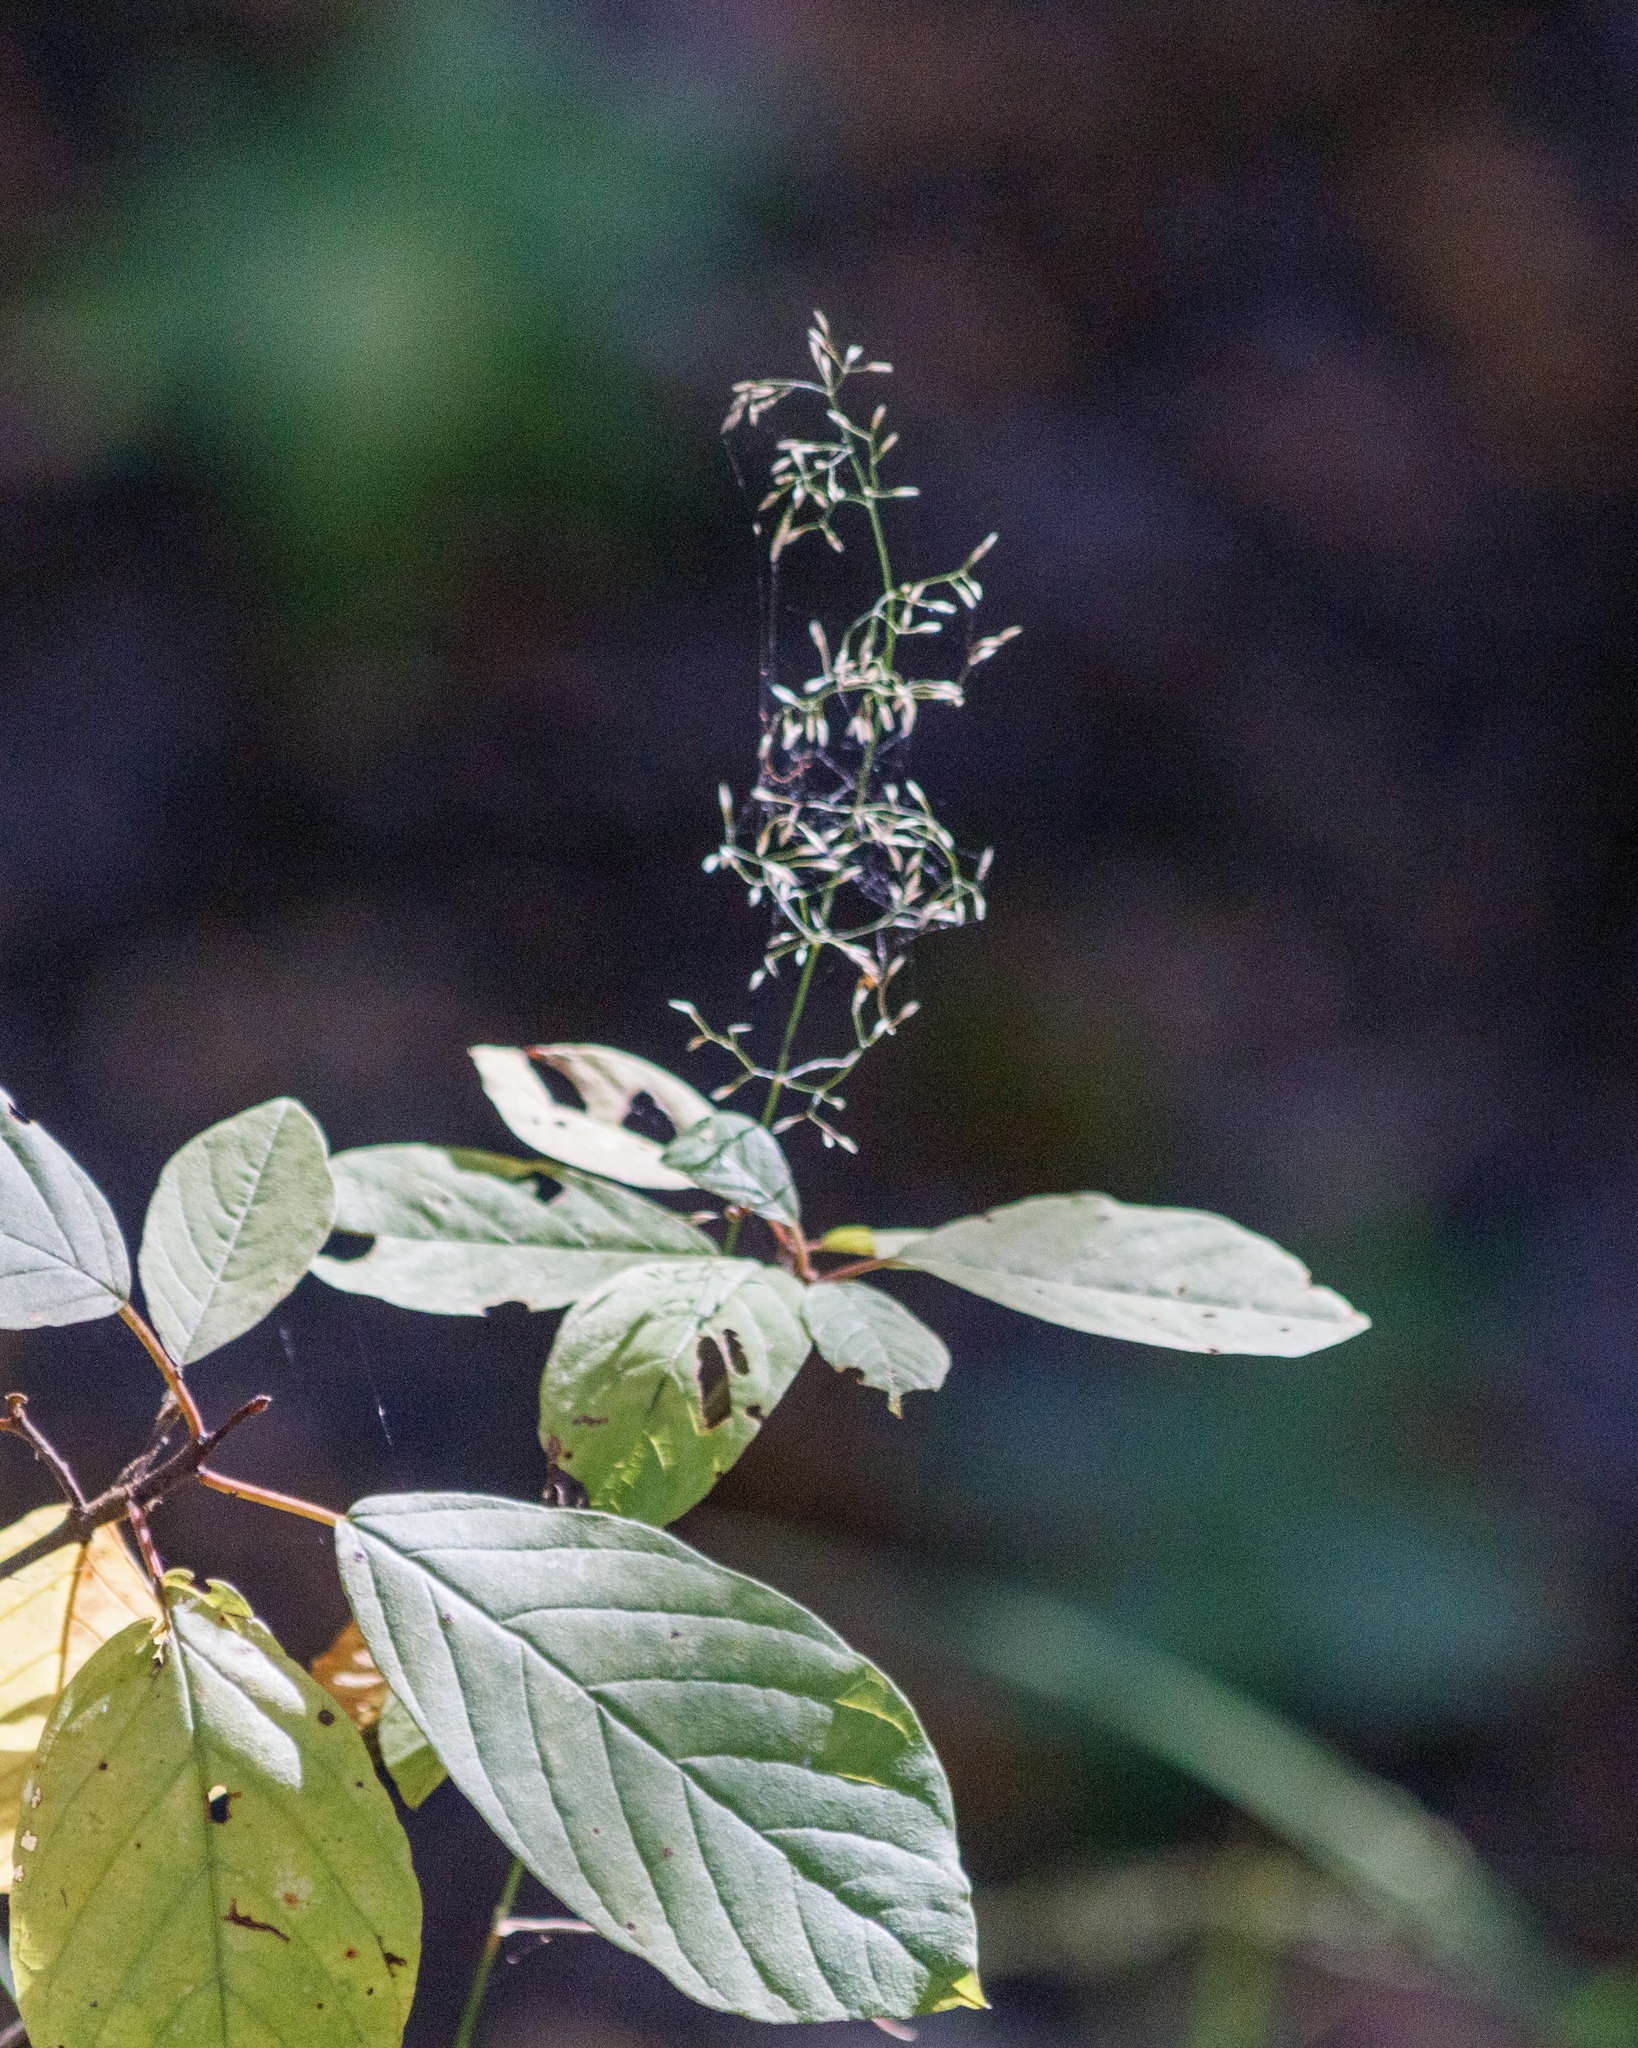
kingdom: Plantae
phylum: Tracheophyta
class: Magnoliopsida
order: Rosales
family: Rhamnaceae
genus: Frangula
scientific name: Frangula alnus
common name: Alder buckthorn
